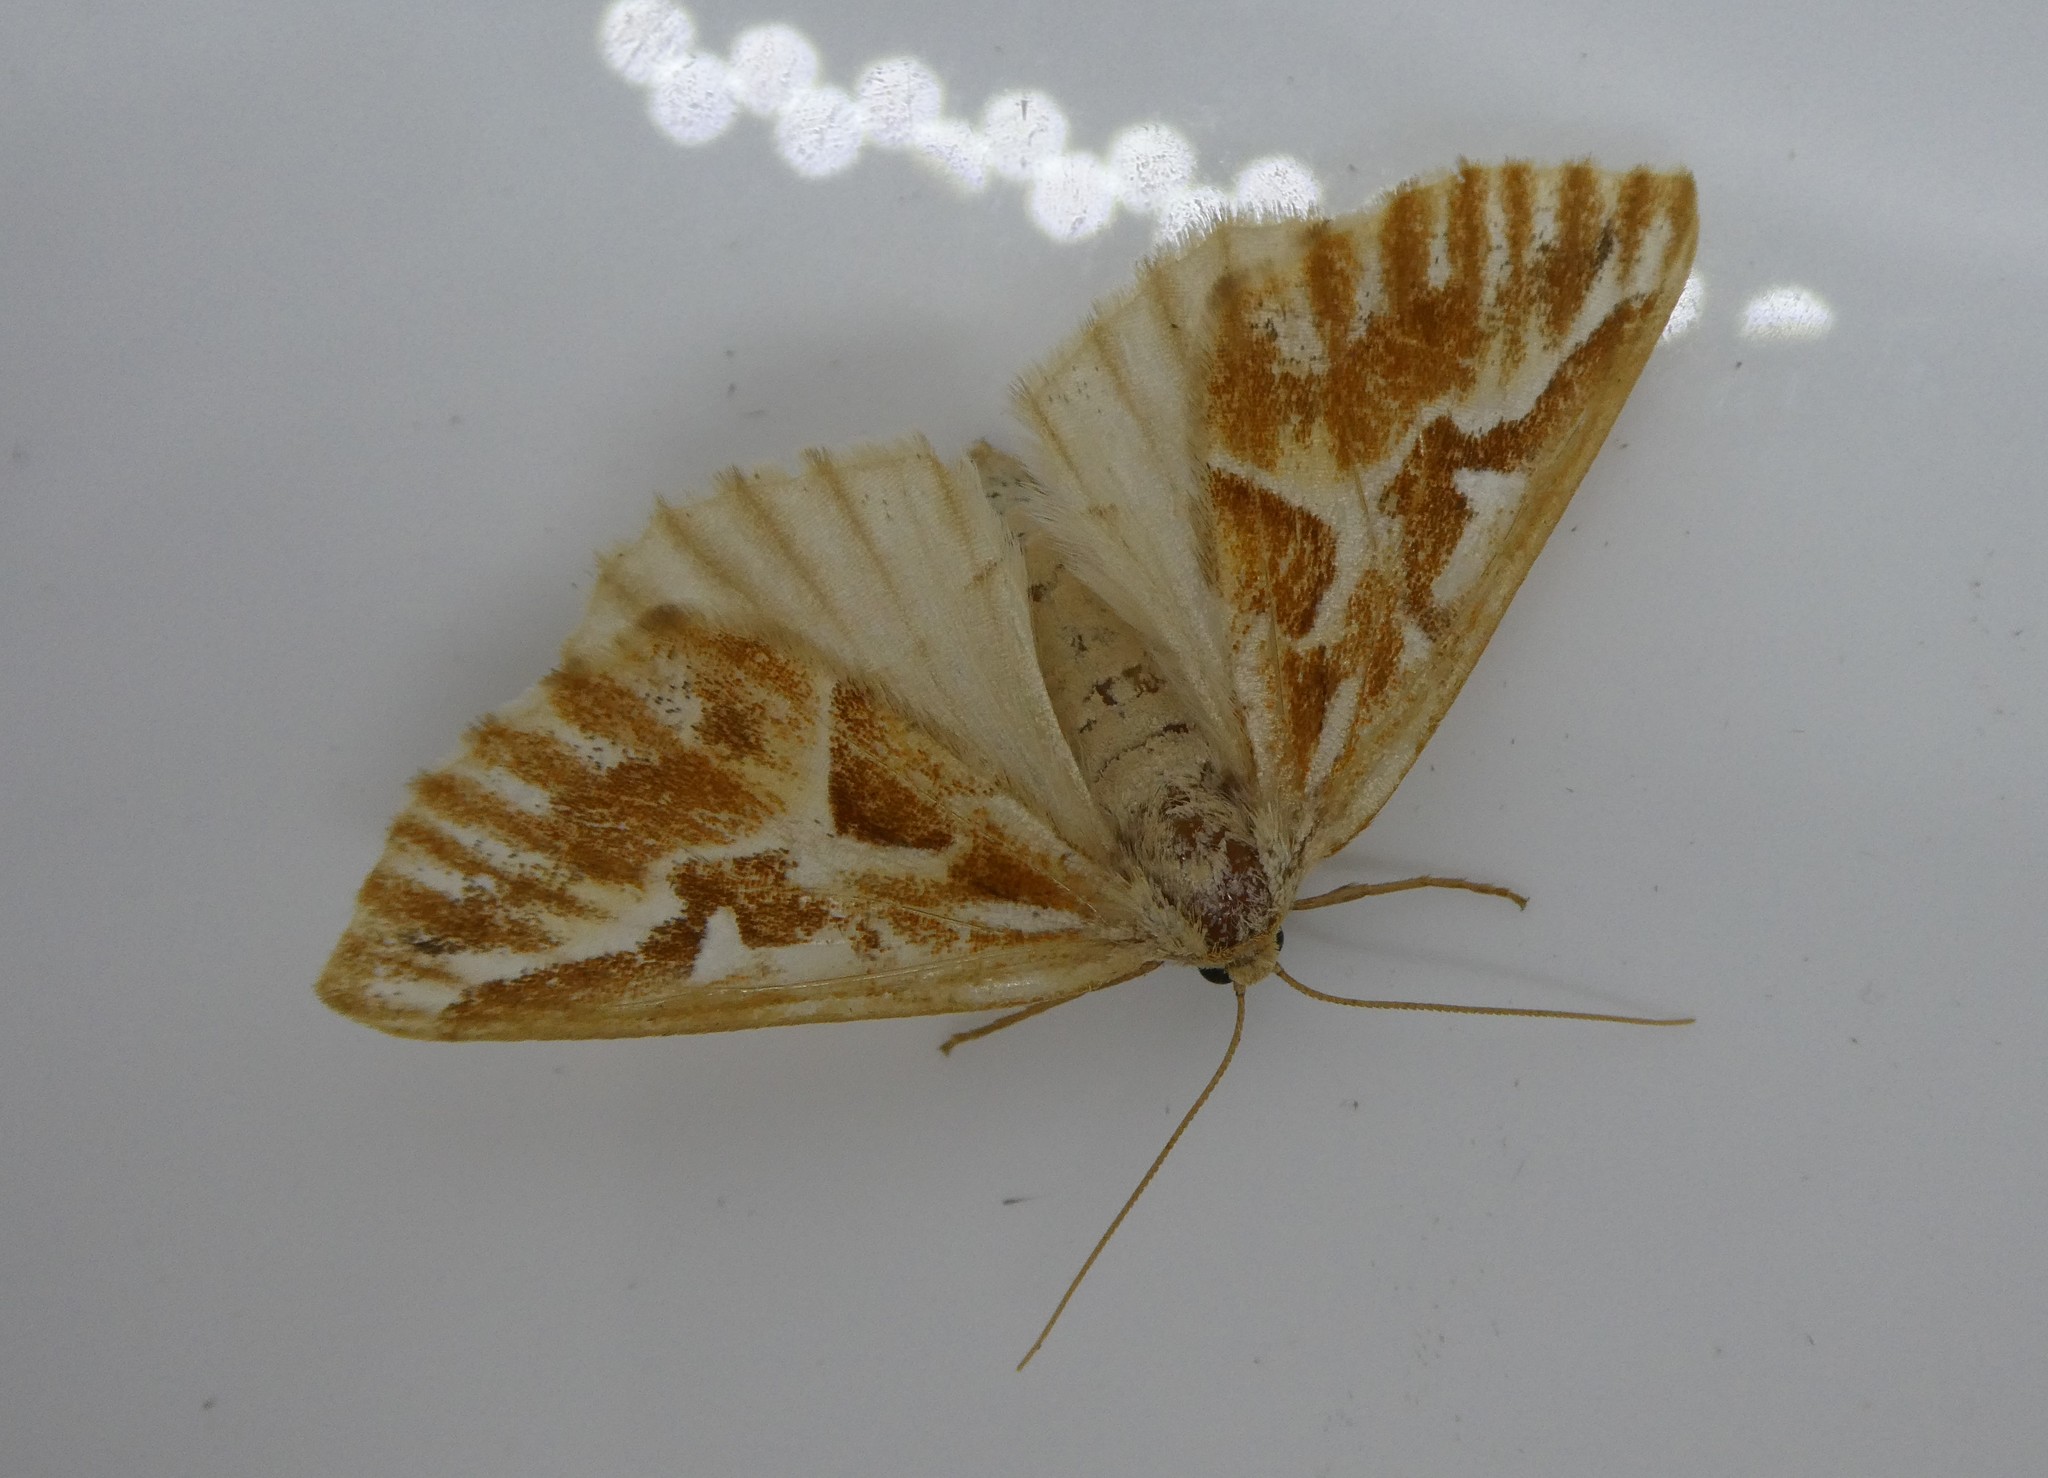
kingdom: Animalia
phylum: Arthropoda
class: Insecta
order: Lepidoptera
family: Geometridae
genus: Caripeta
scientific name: Caripeta piniata
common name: Northern pine looper moth
